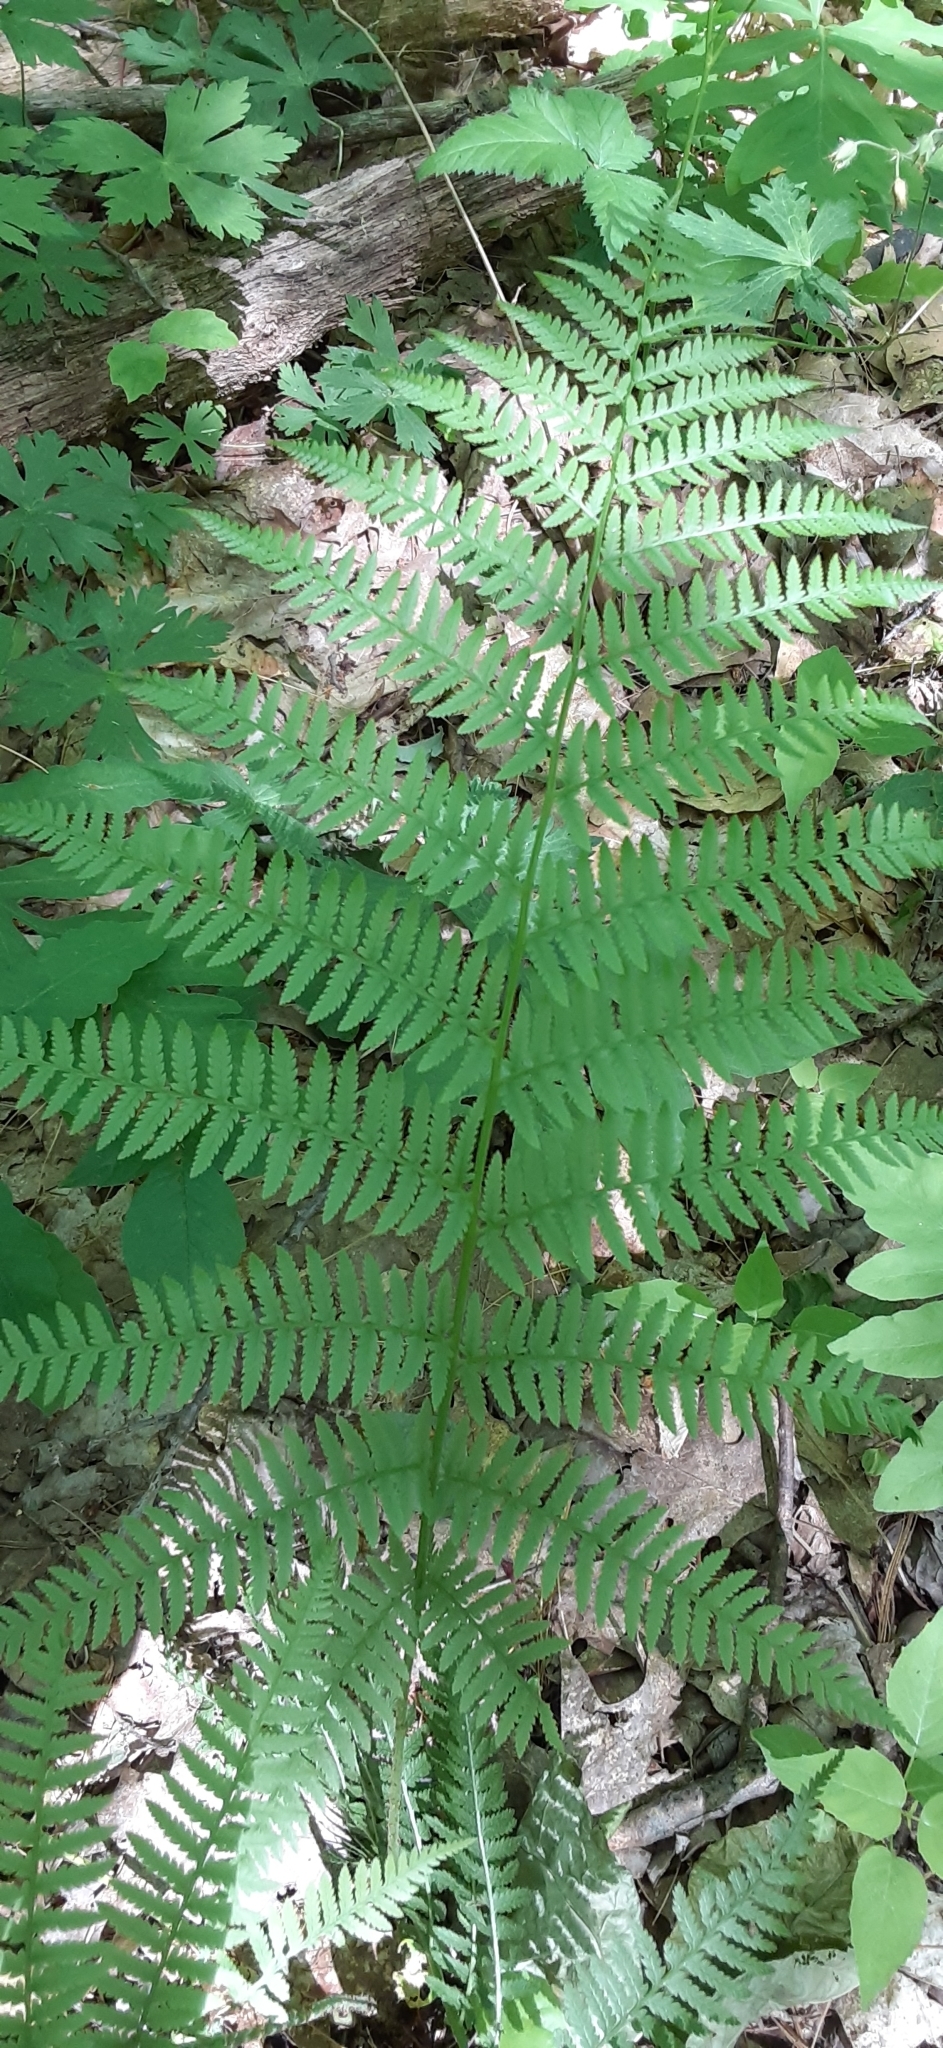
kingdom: Plantae
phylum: Tracheophyta
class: Polypodiopsida
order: Polypodiales
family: Athyriaceae
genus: Athyrium
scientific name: Athyrium angustum
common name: Northern lady fern
